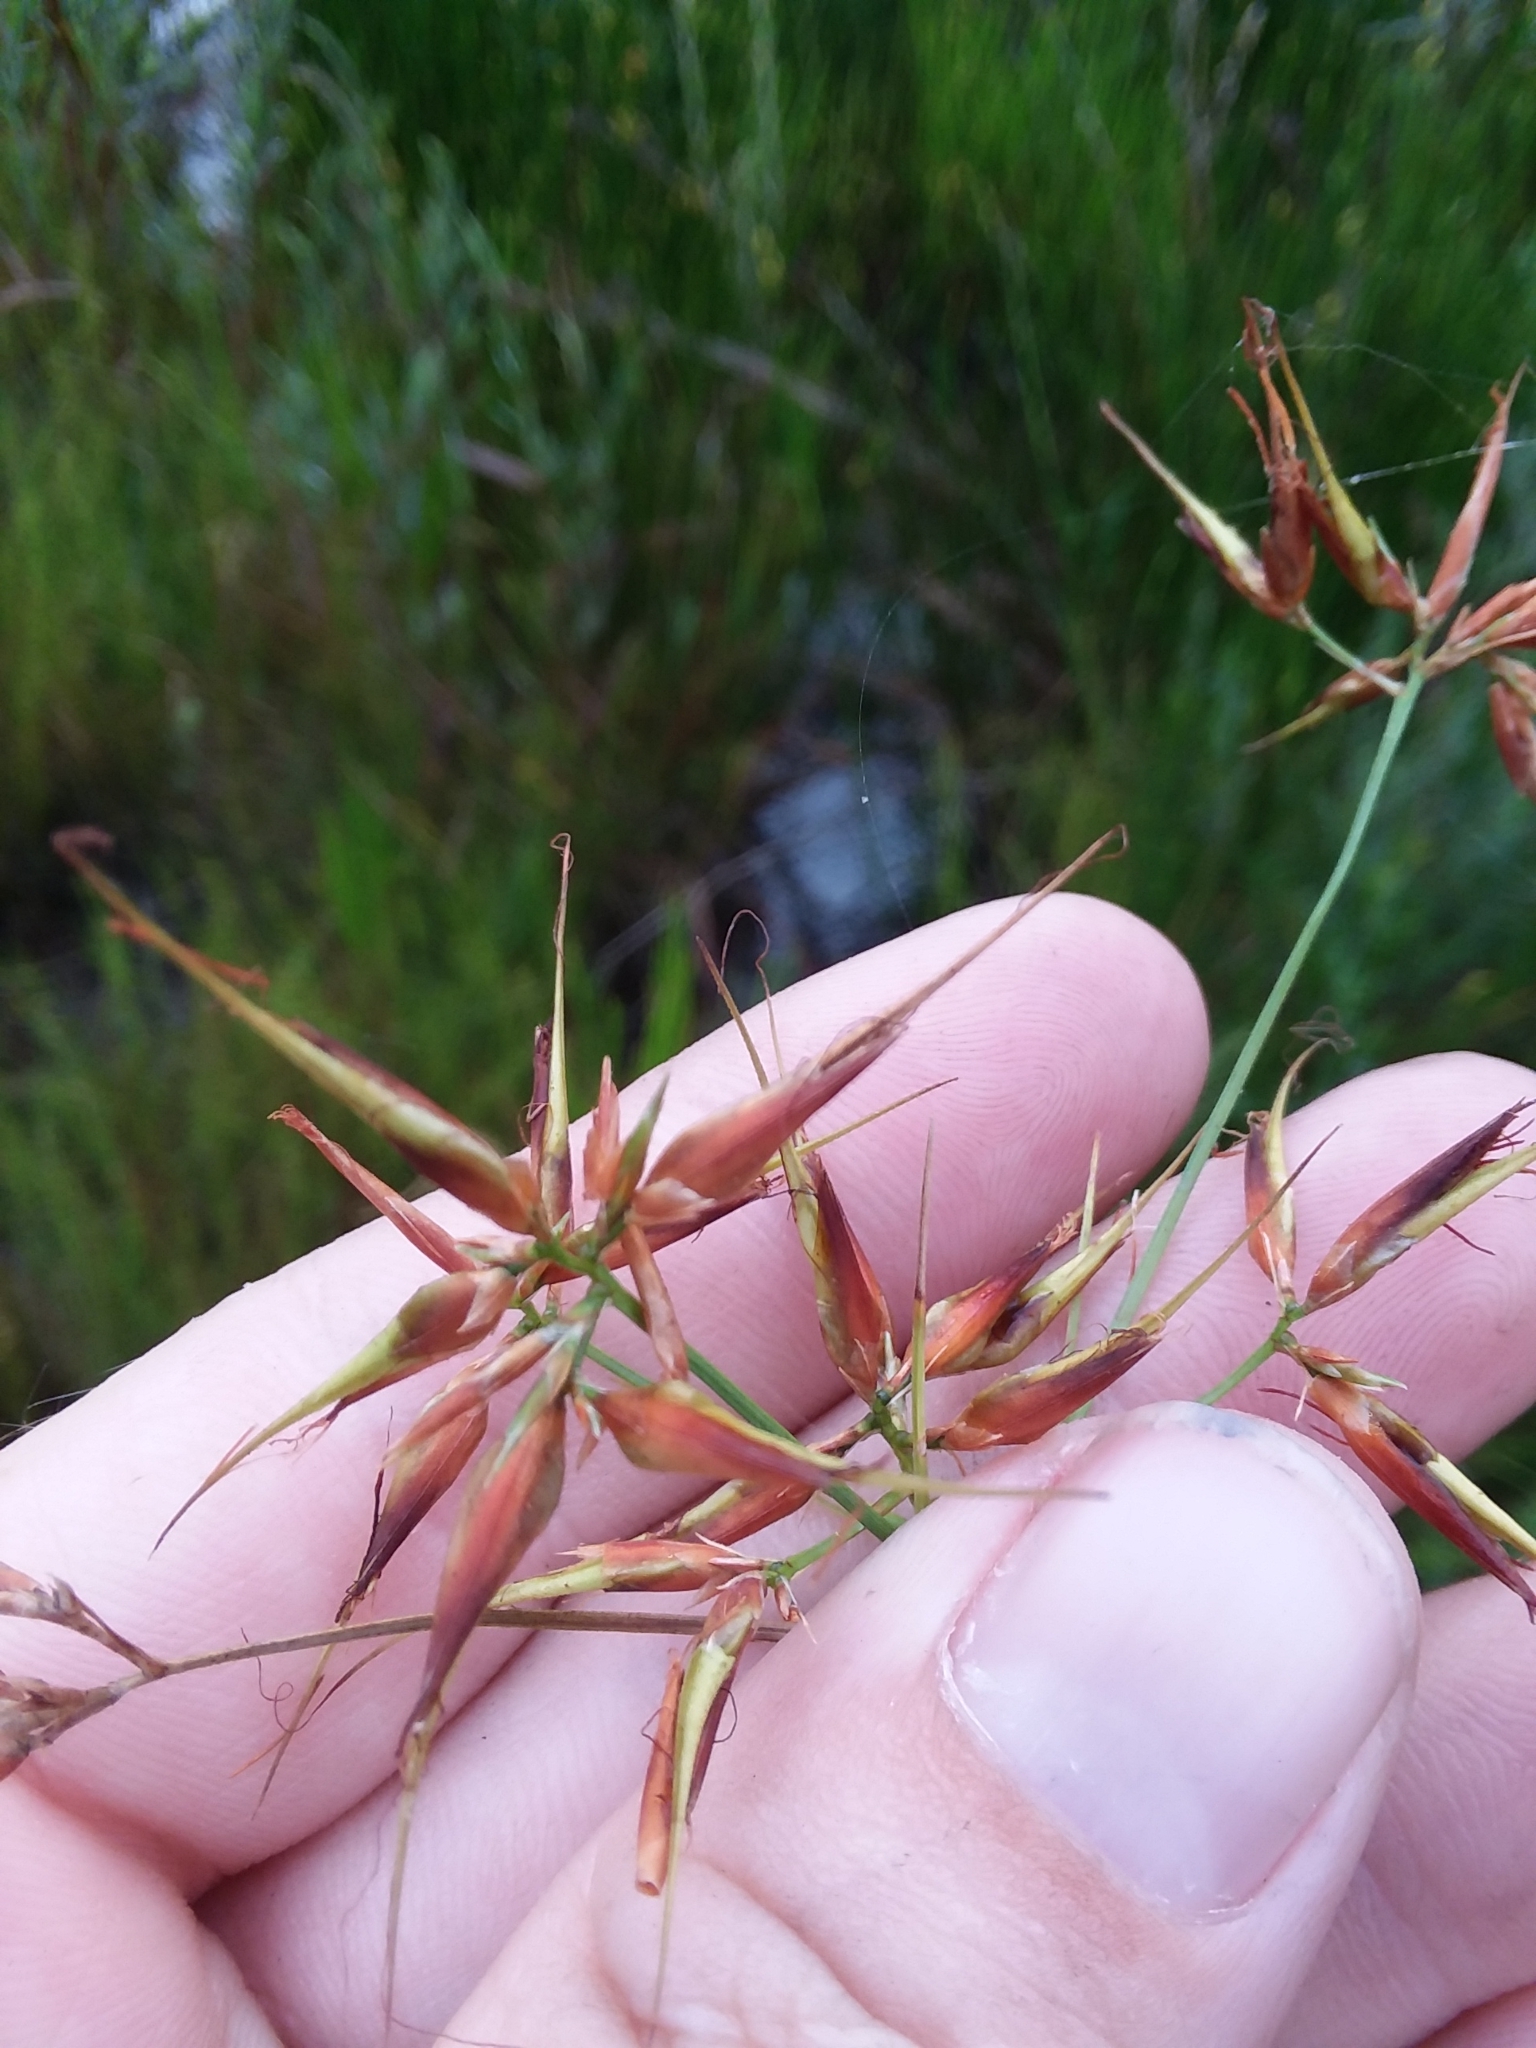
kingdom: Plantae
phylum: Tracheophyta
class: Liliopsida
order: Poales
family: Cyperaceae
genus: Rhynchospora
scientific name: Rhynchospora corniculata
